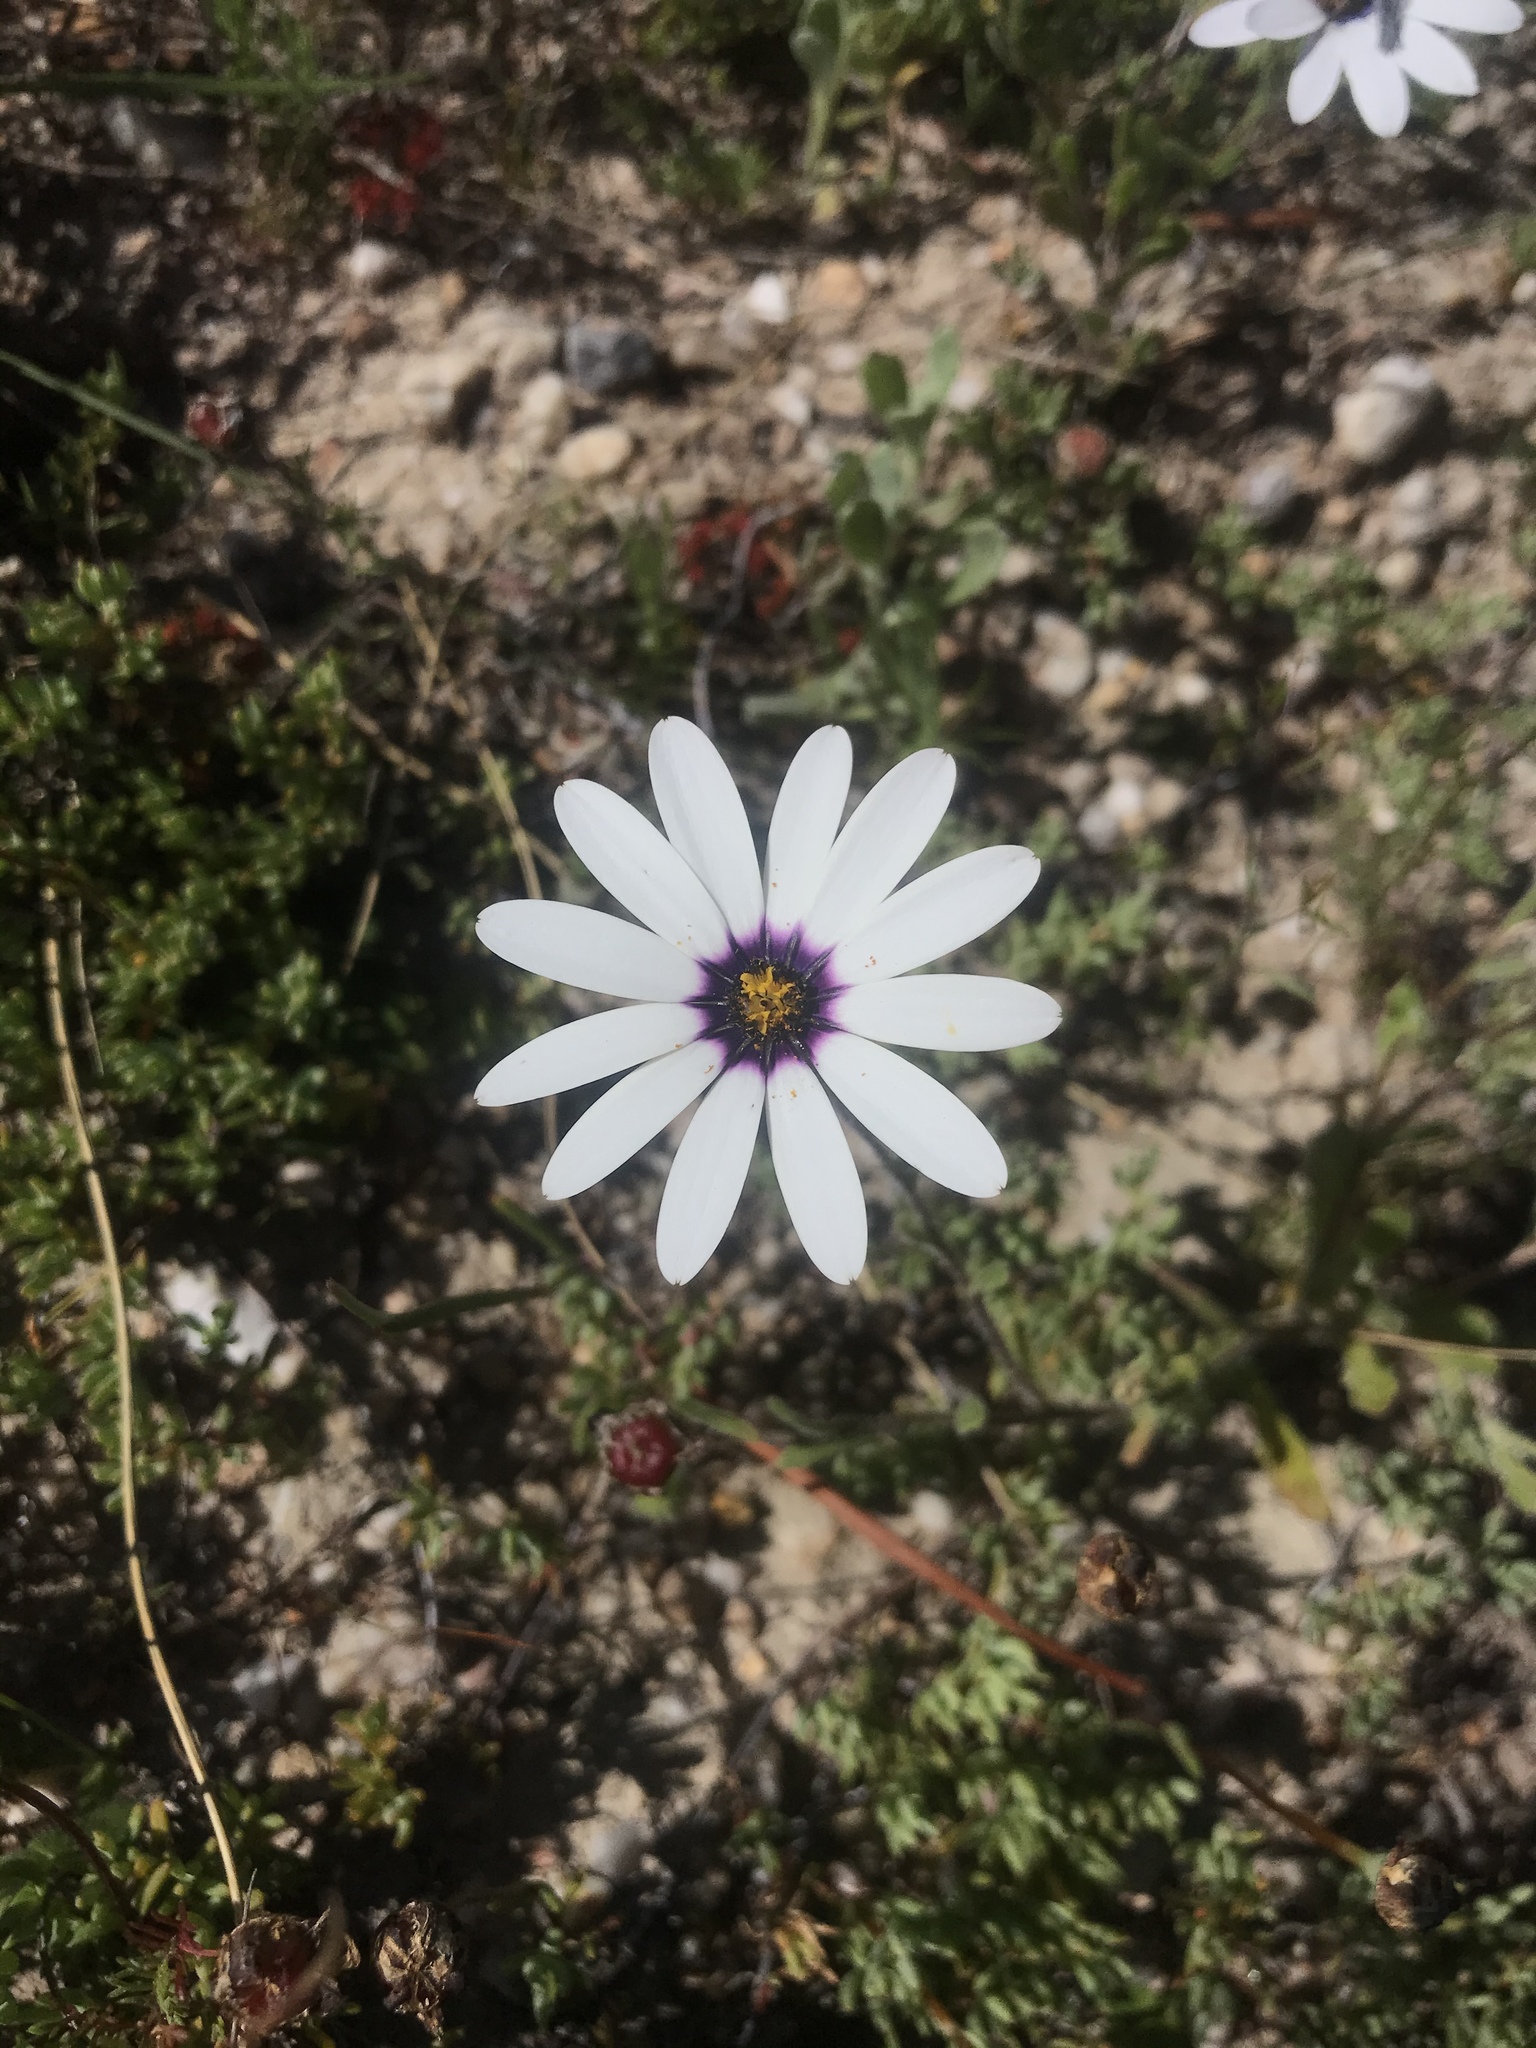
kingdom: Plantae
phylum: Tracheophyta
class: Magnoliopsida
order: Asterales
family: Asteraceae
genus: Dimorphotheca
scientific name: Dimorphotheca pluvialis
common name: Weather prophet
